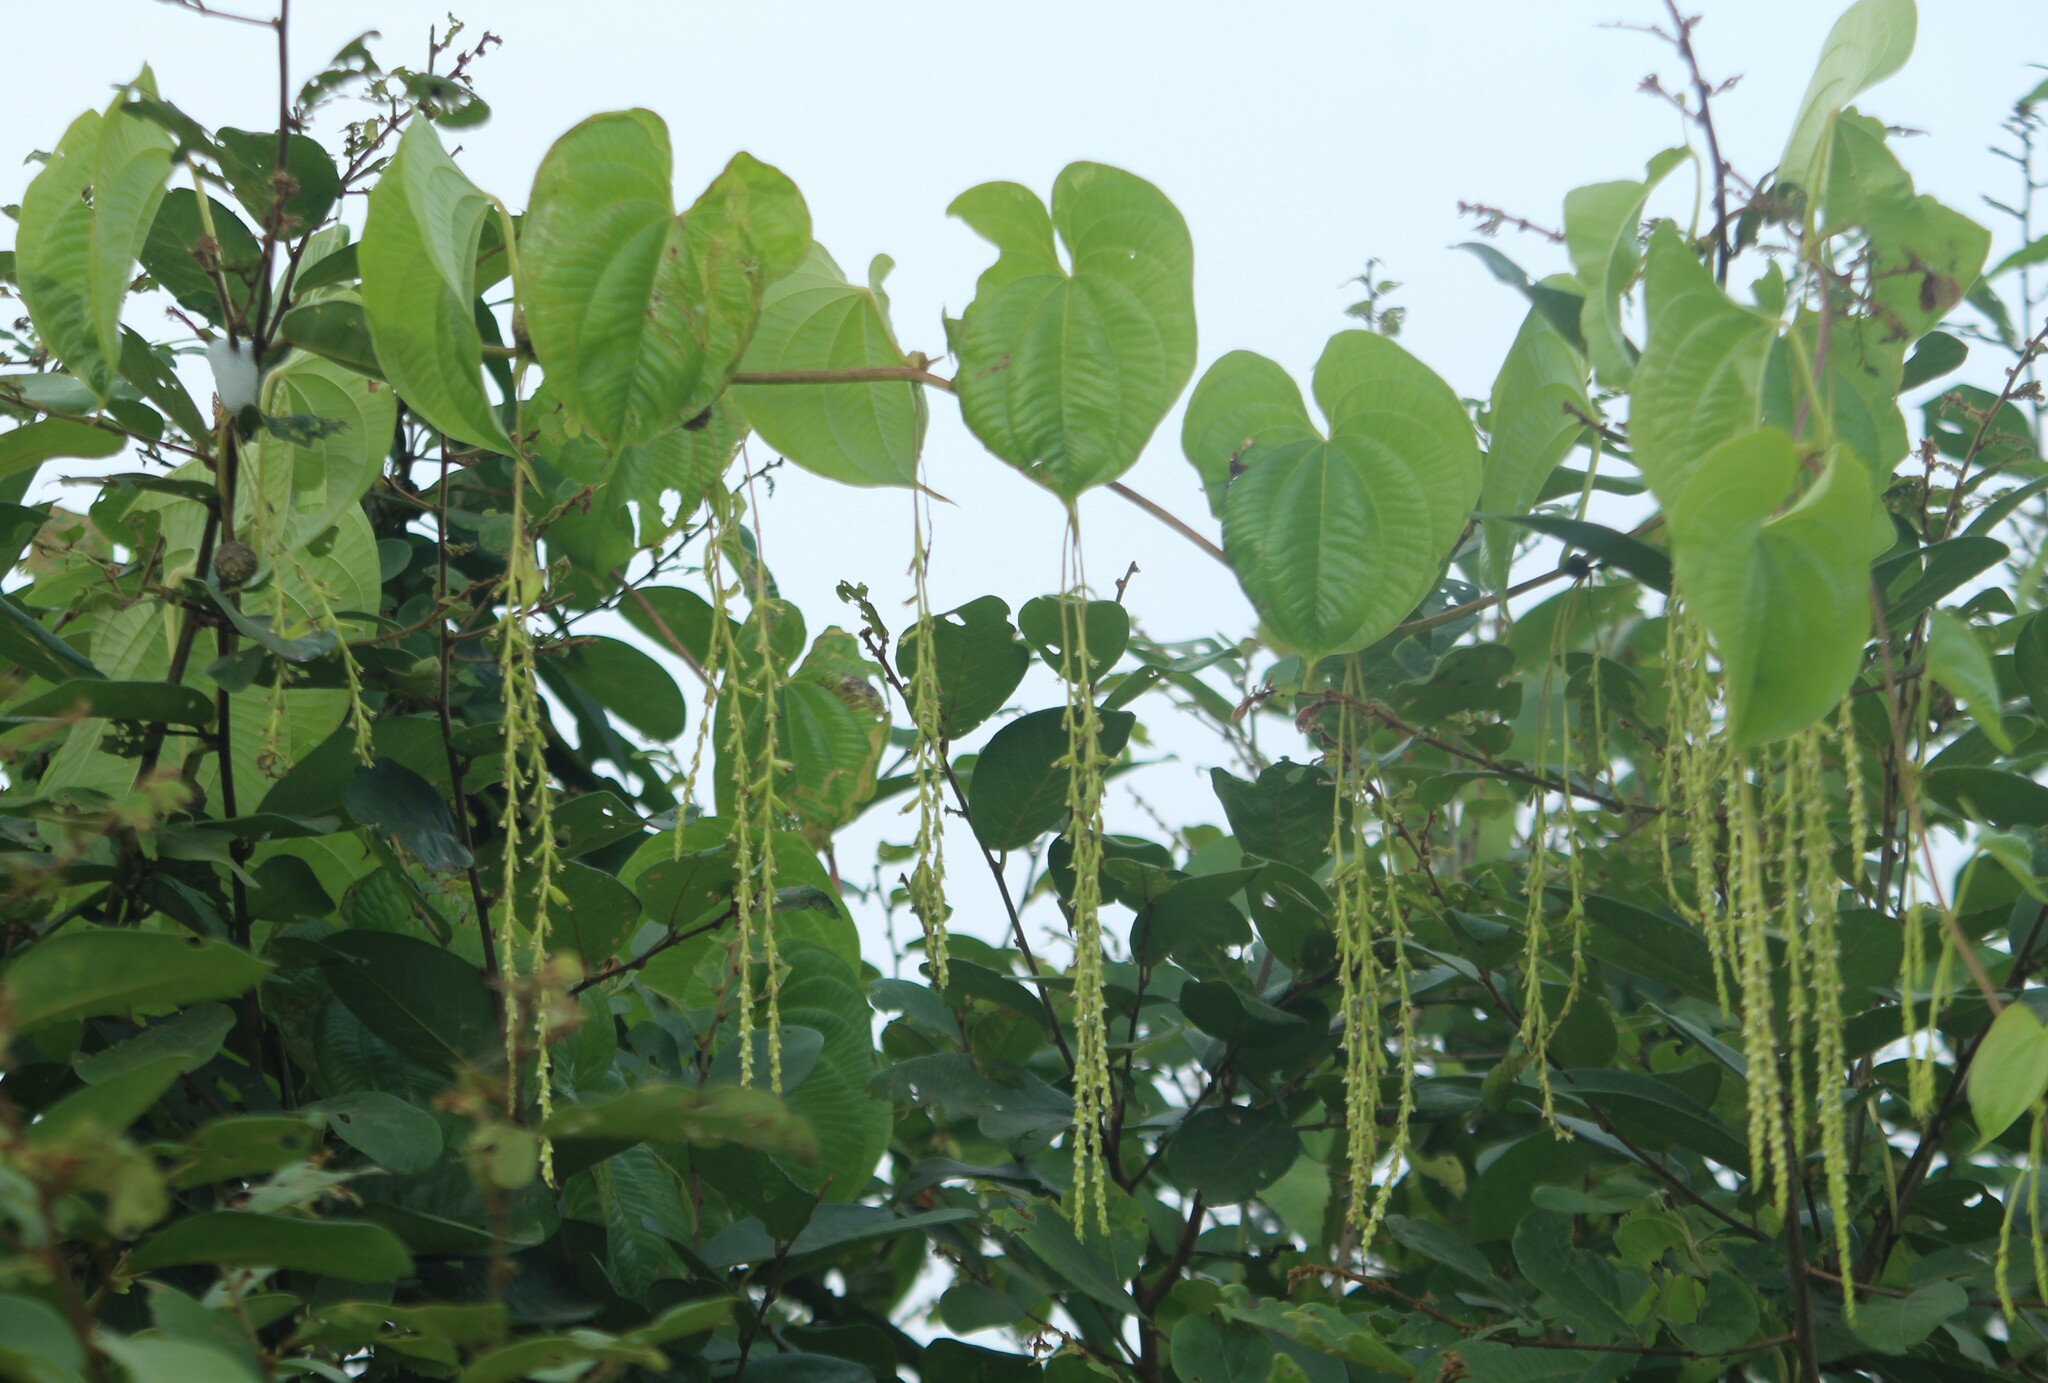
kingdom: Plantae
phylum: Tracheophyta
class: Liliopsida
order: Dioscoreales
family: Dioscoreaceae
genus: Dioscorea
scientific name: Dioscorea bulbifera
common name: Air yam
